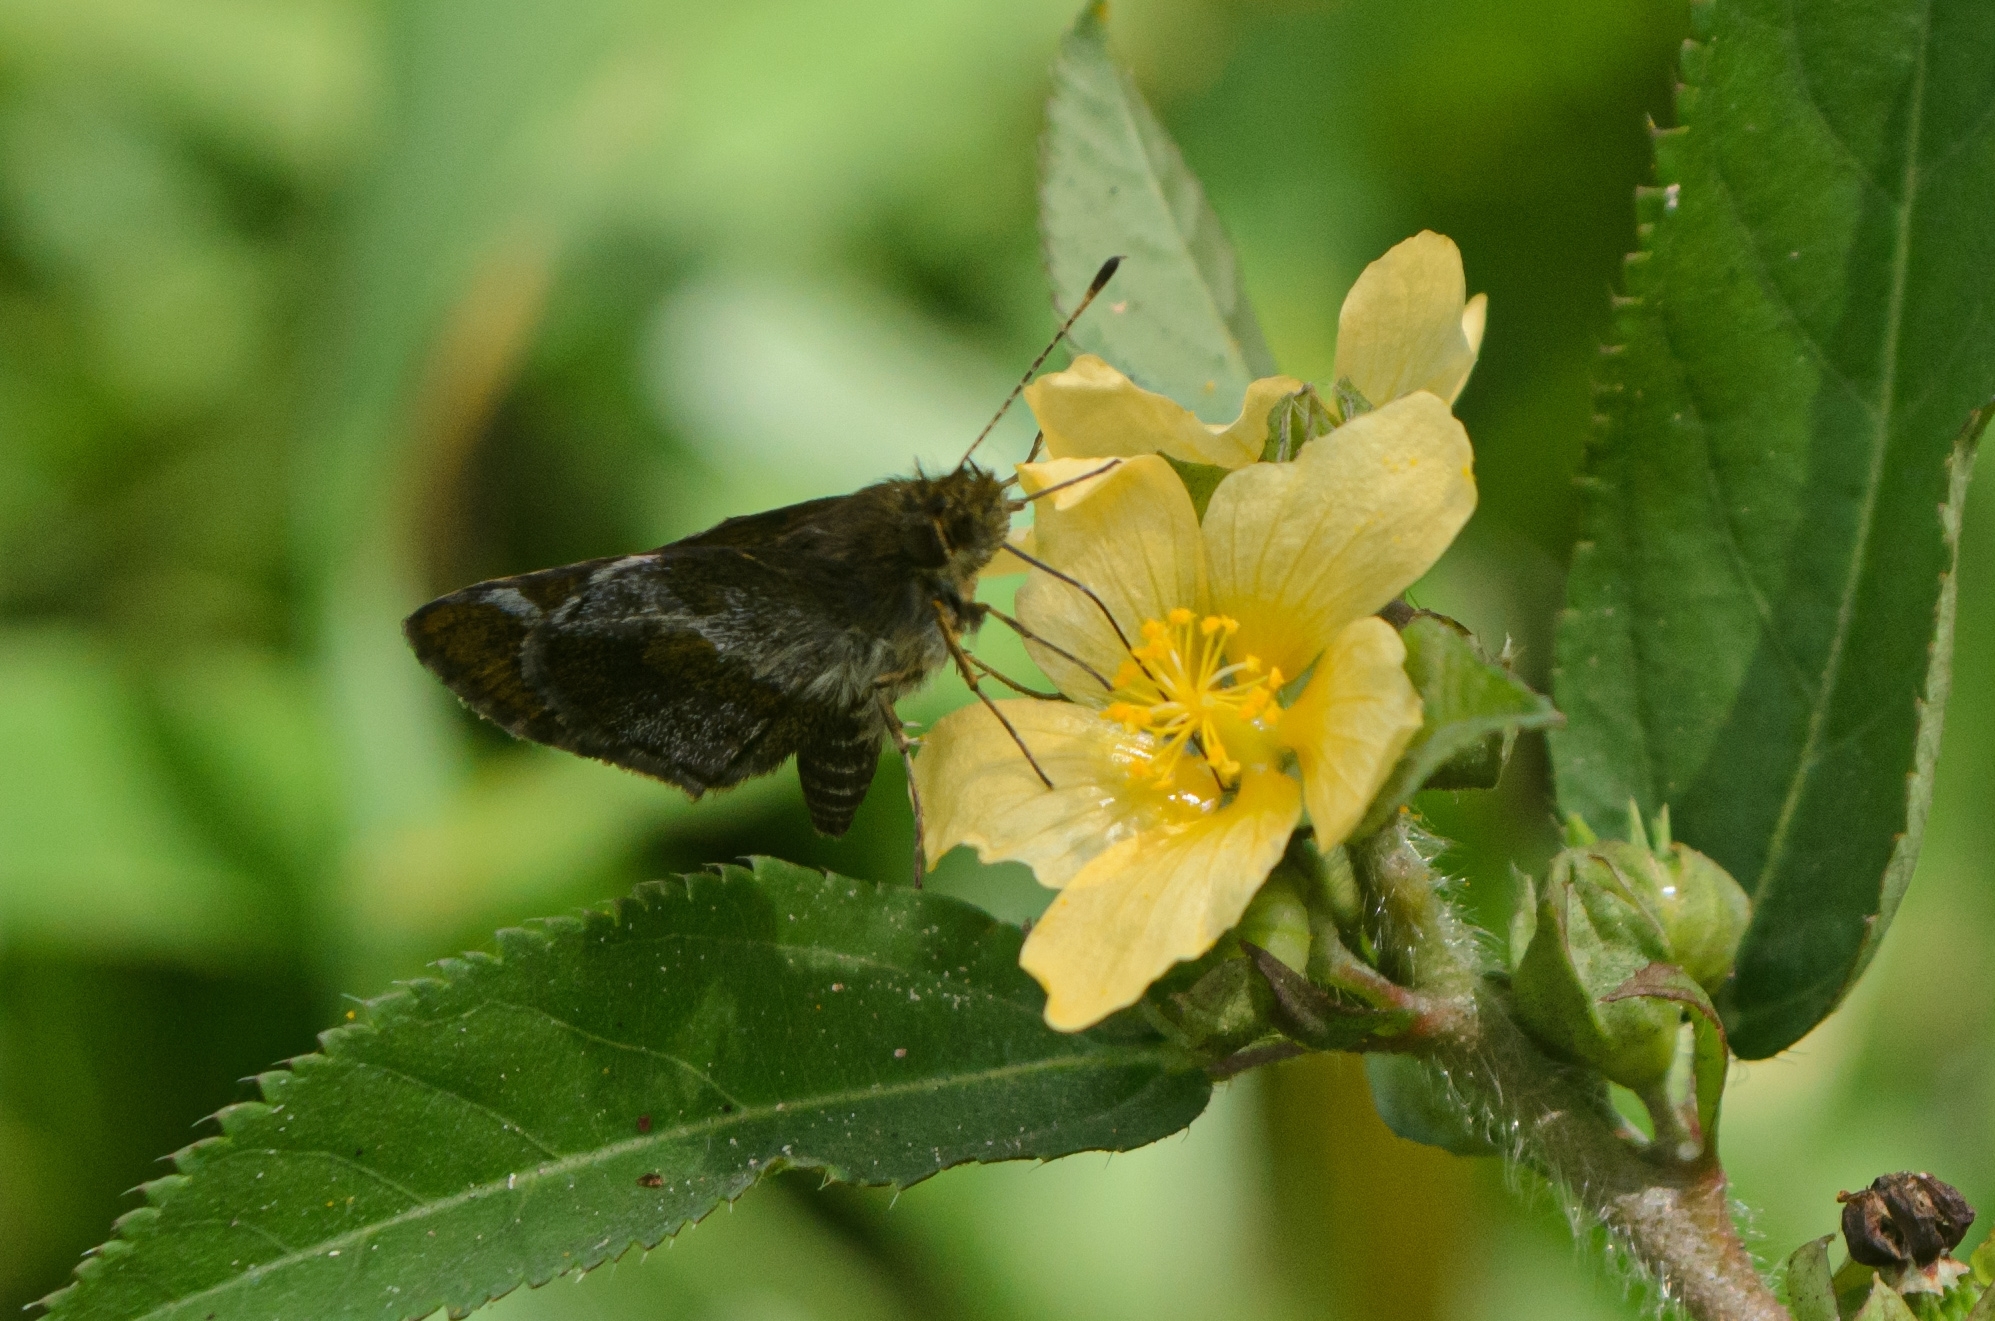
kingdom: Animalia
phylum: Arthropoda
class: Insecta
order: Lepidoptera
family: Hesperiidae
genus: Callimormus
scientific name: Callimormus
